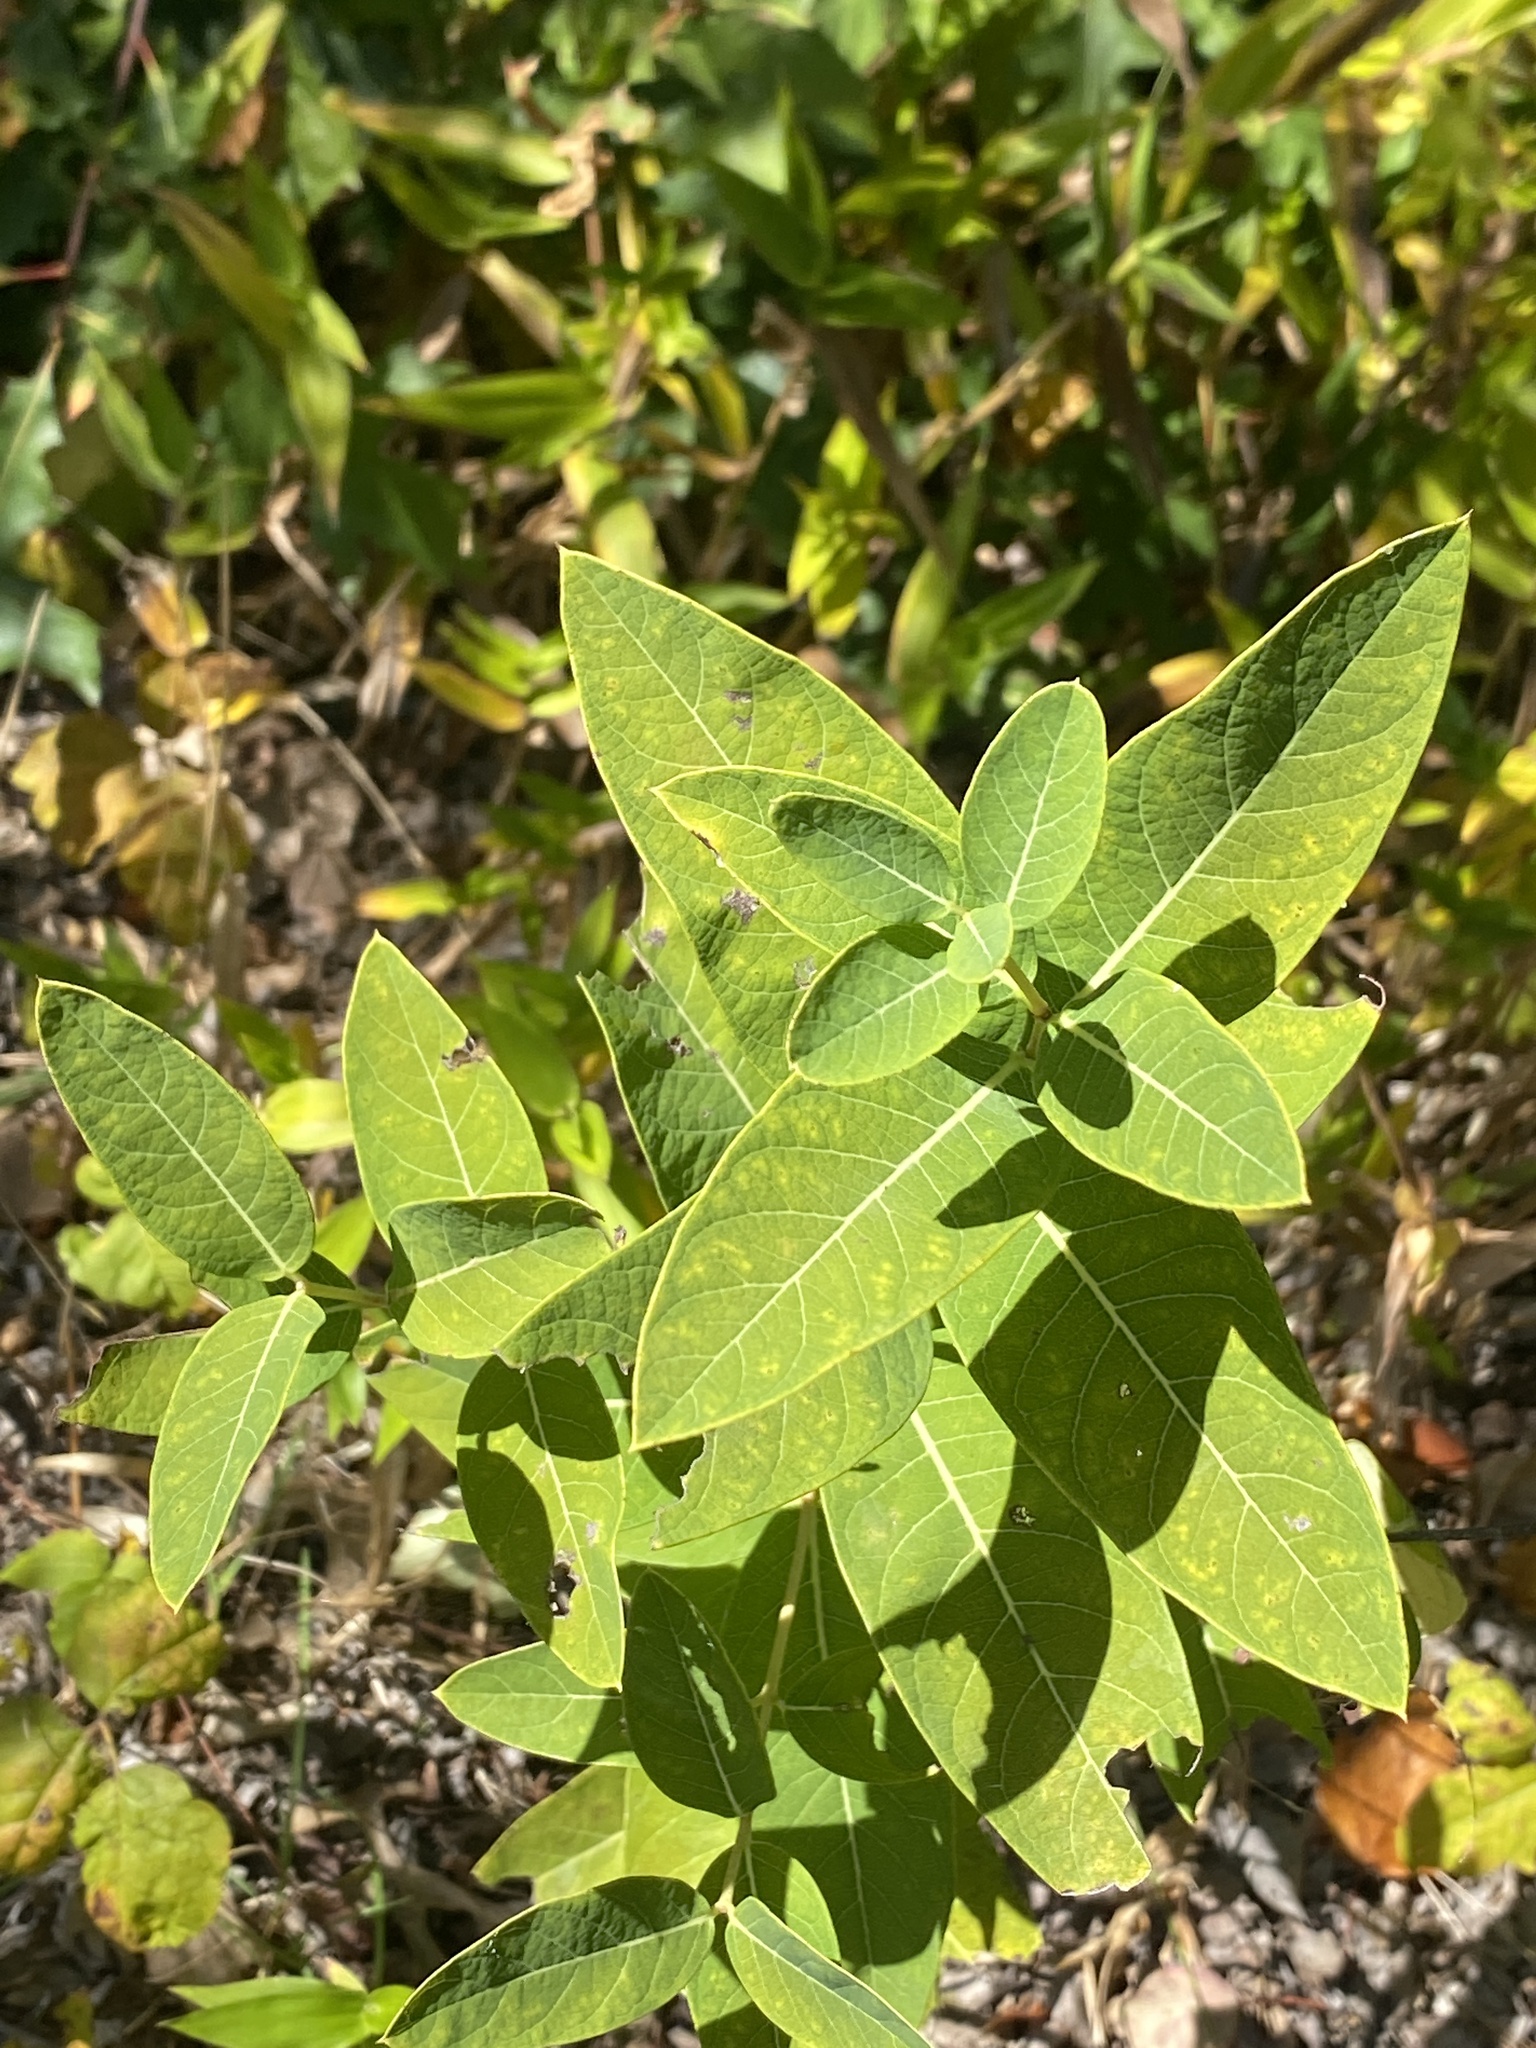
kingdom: Plantae
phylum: Tracheophyta
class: Magnoliopsida
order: Gentianales
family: Apocynaceae
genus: Apocynum
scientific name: Apocynum cannabinum
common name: Hemp dogbane
